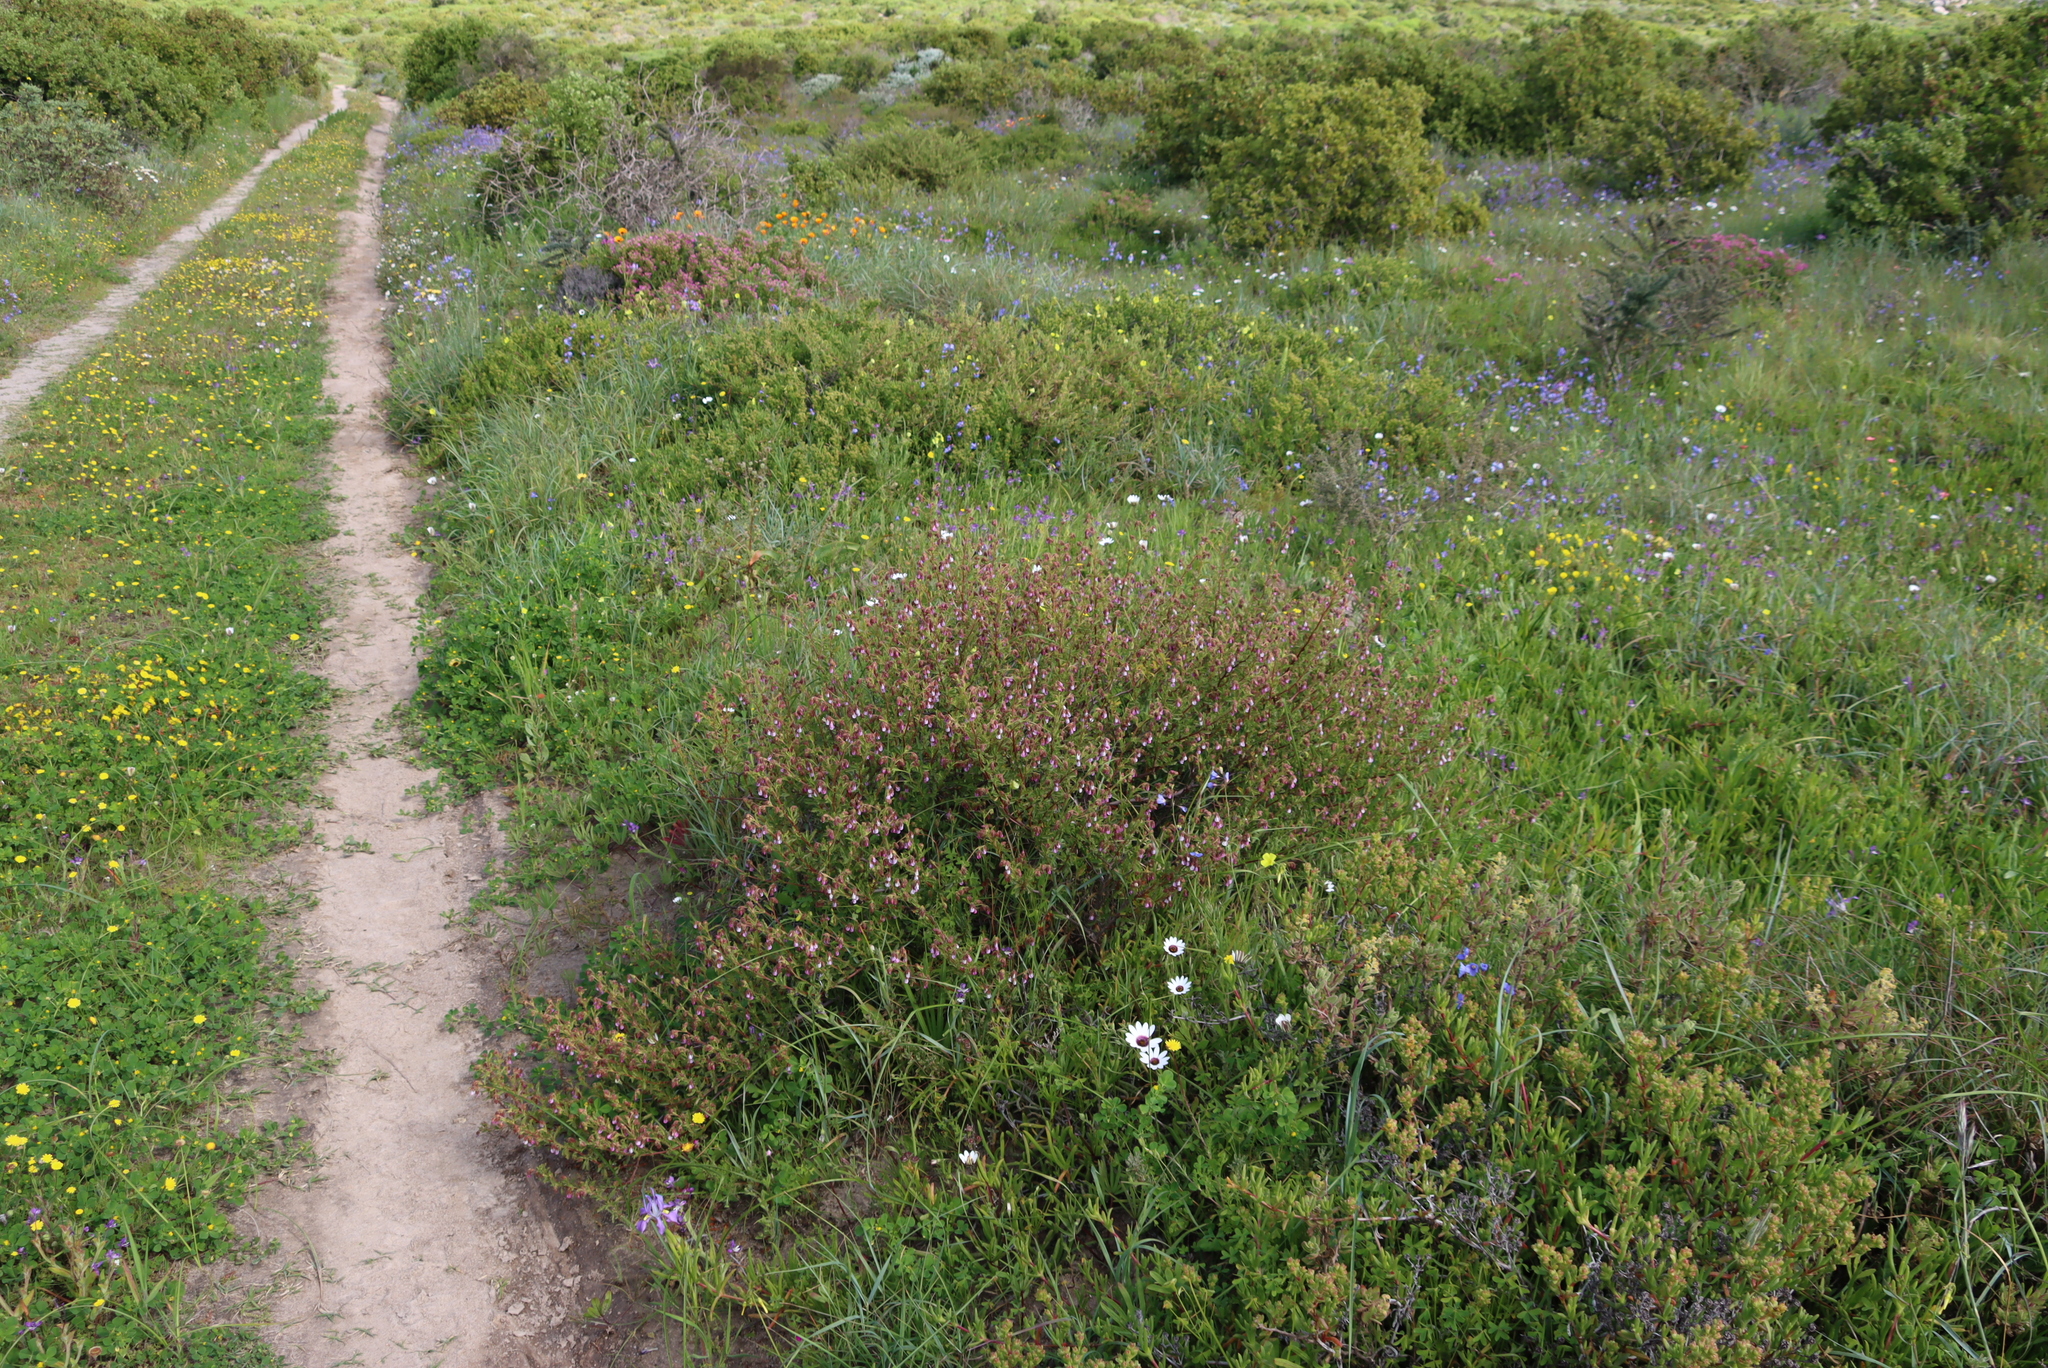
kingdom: Plantae
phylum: Tracheophyta
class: Magnoliopsida
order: Malvales
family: Malvaceae
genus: Hermannia
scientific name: Hermannia heterophylla
